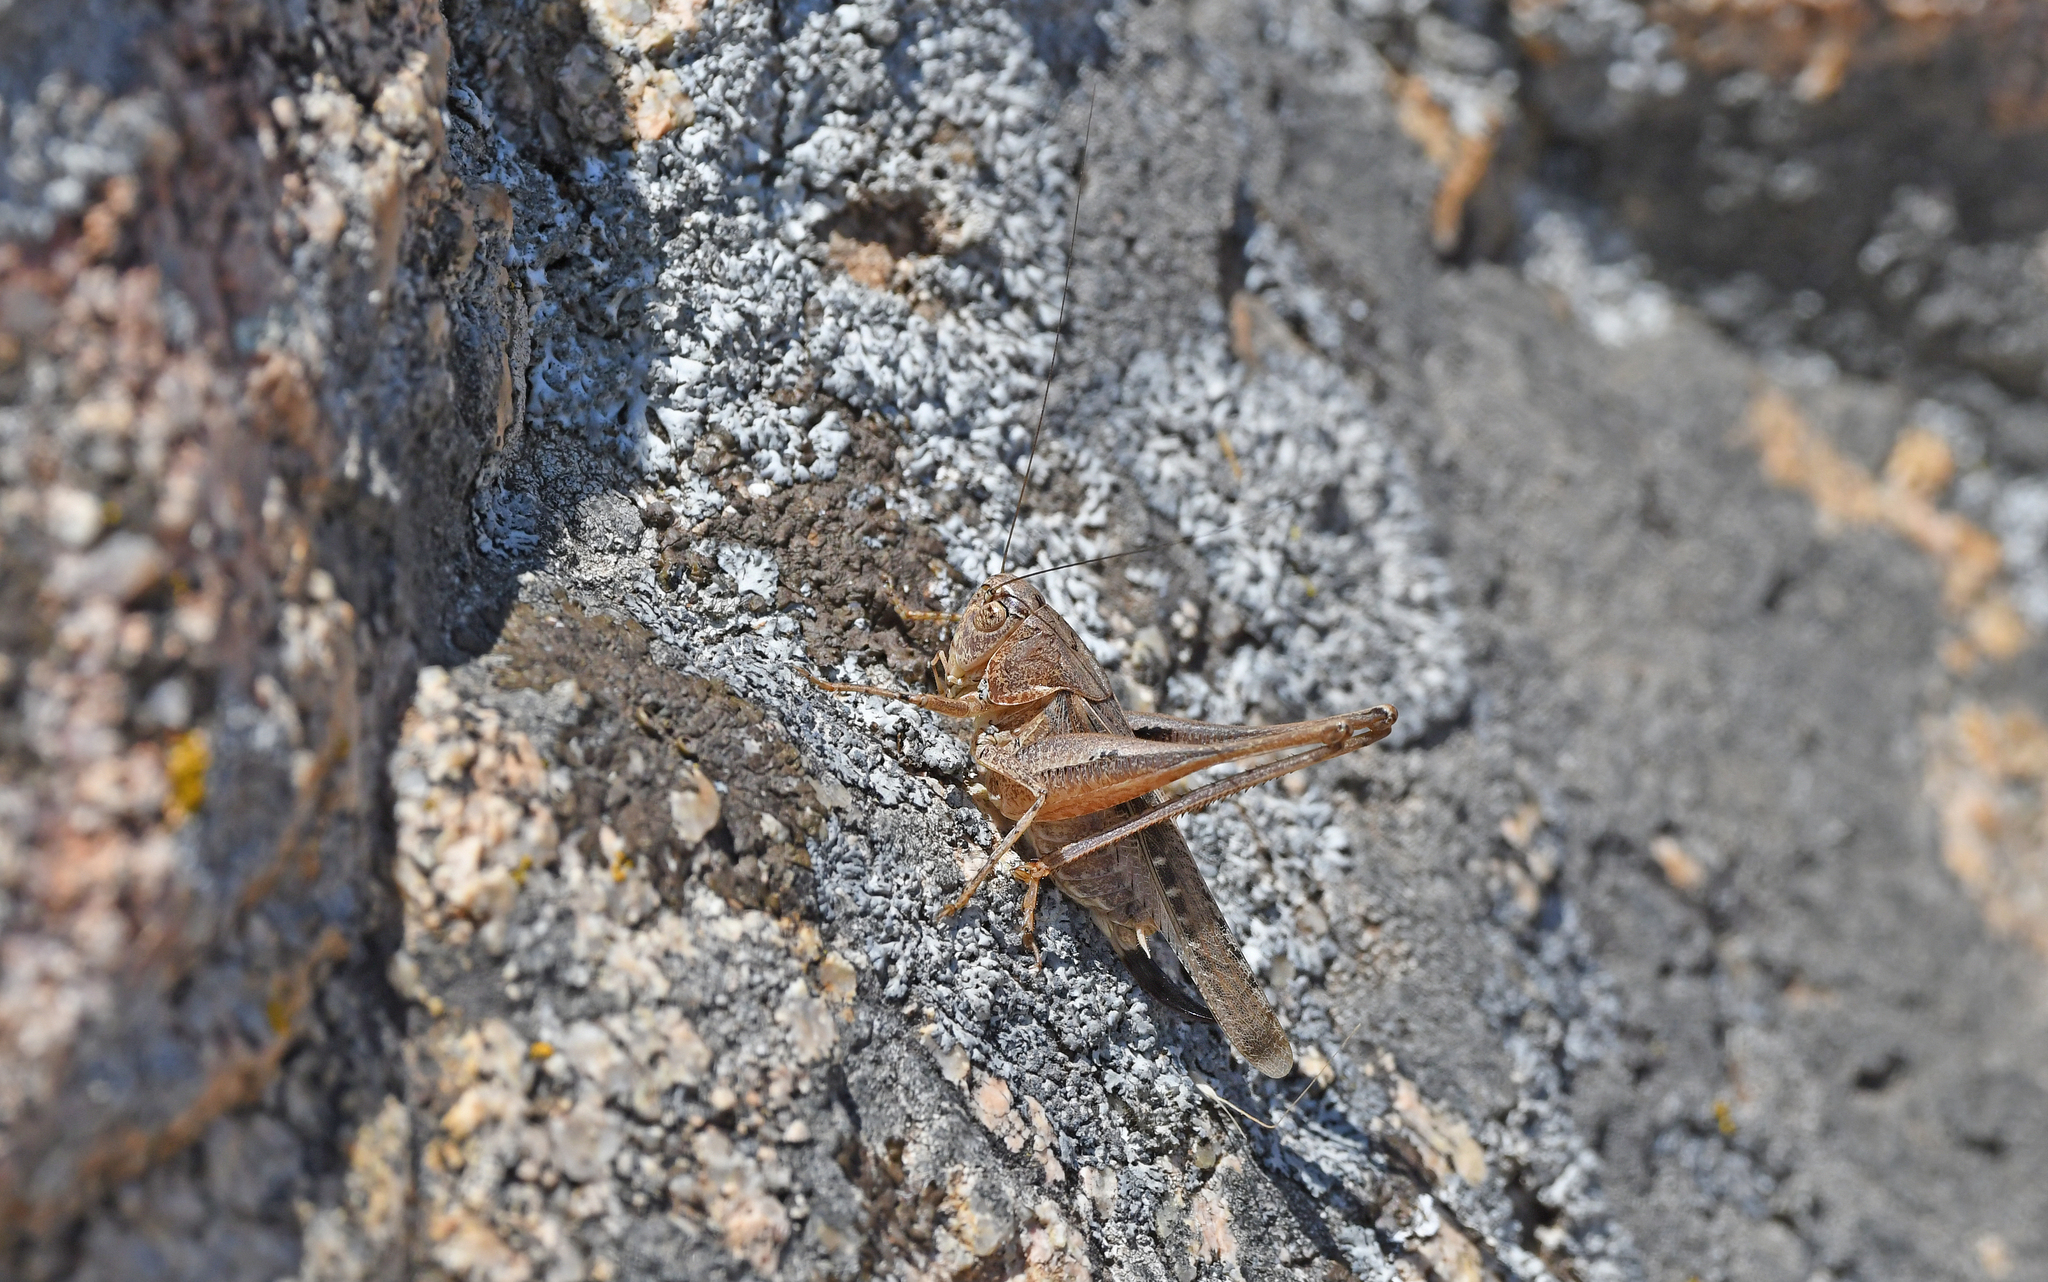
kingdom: Animalia
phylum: Arthropoda
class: Insecta
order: Orthoptera
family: Tettigoniidae
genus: Platycleis
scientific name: Platycleis intermedia
